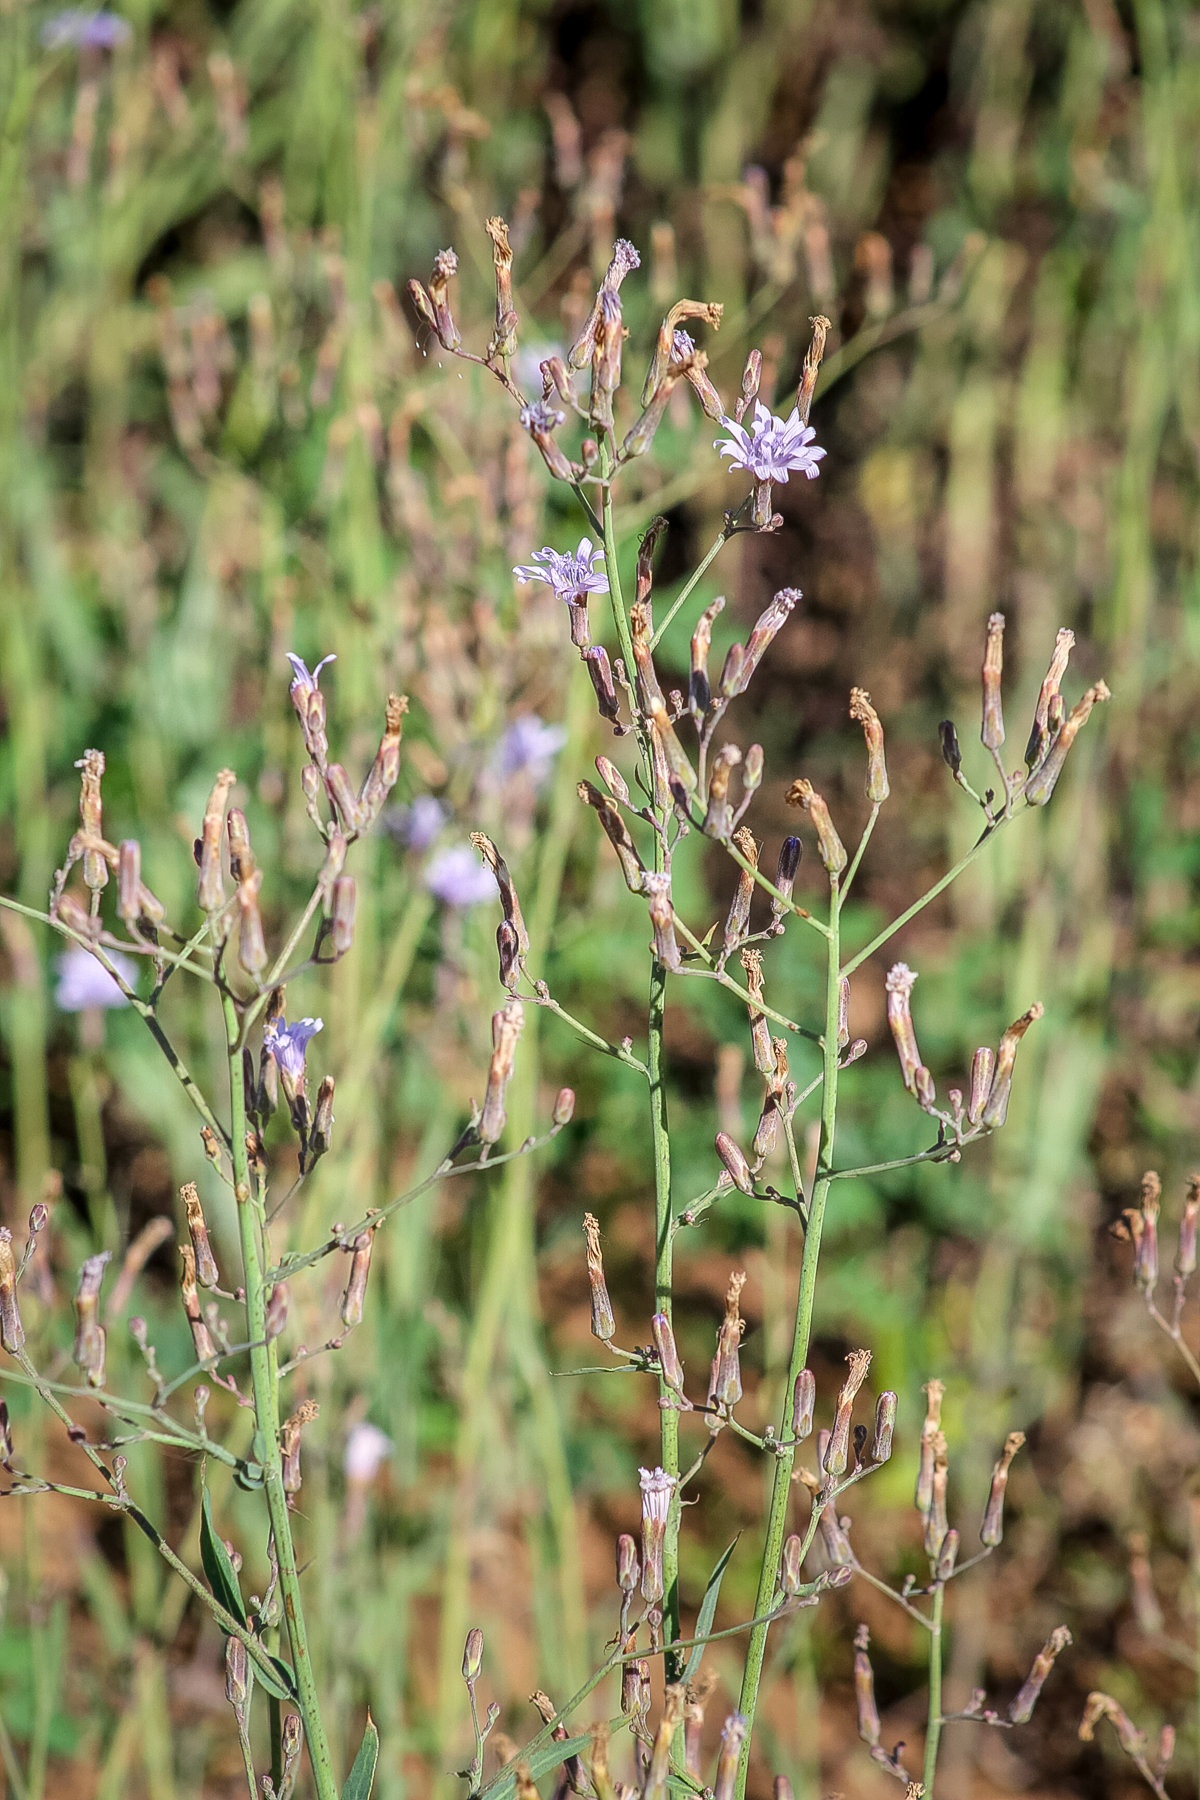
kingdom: Plantae
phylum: Tracheophyta
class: Magnoliopsida
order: Asterales
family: Asteraceae
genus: Lactuca
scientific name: Lactuca tatarica
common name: Blue lettuce
